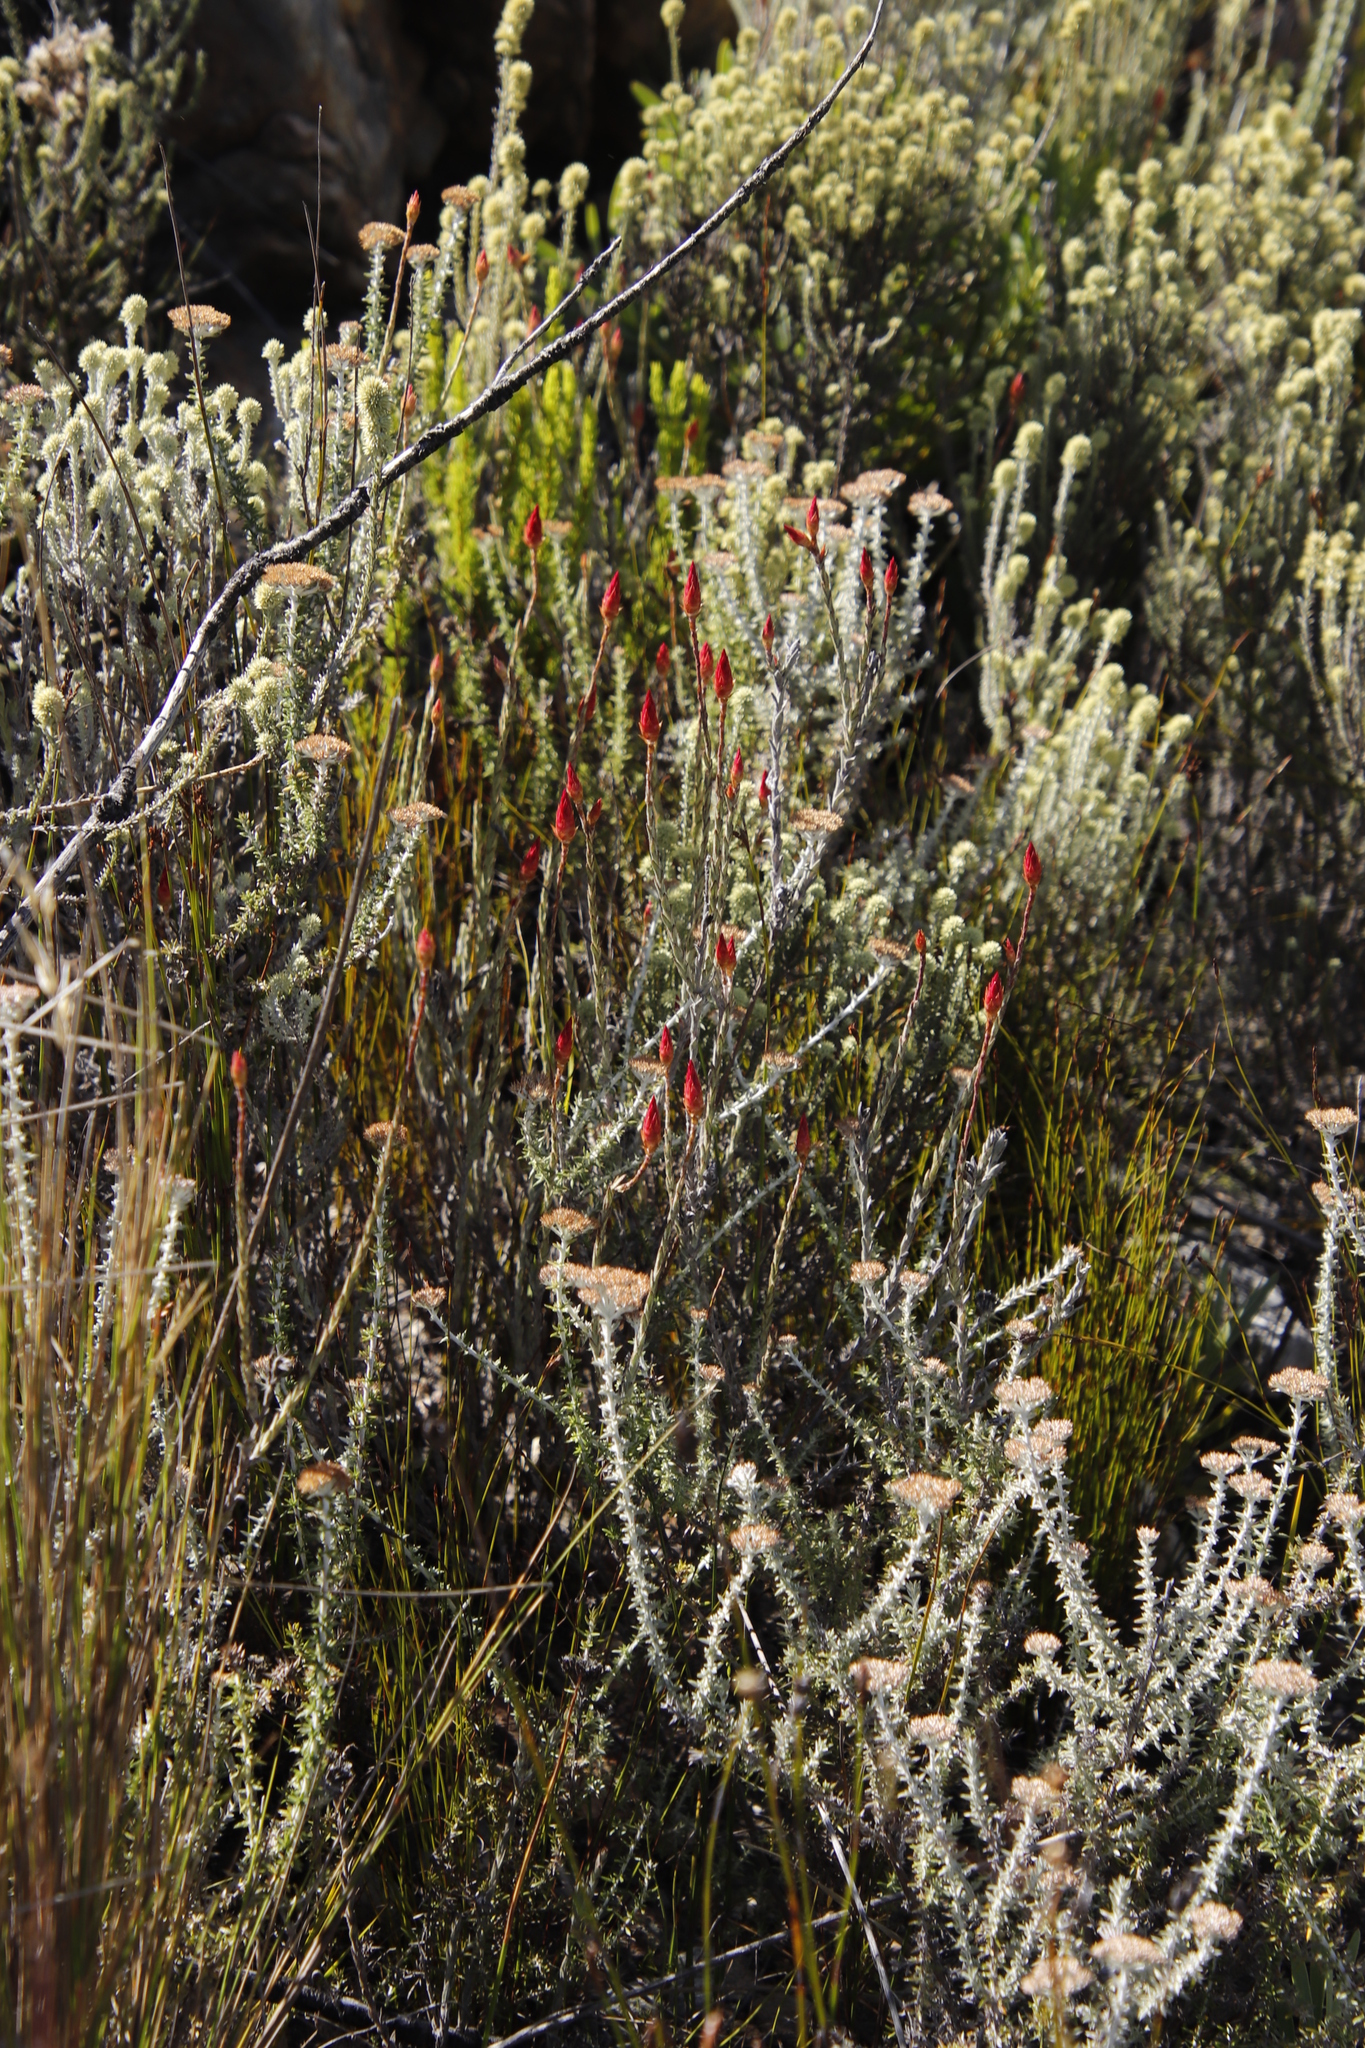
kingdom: Plantae
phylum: Tracheophyta
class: Magnoliopsida
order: Asterales
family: Asteraceae
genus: Syncarpha
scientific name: Syncarpha canescens
